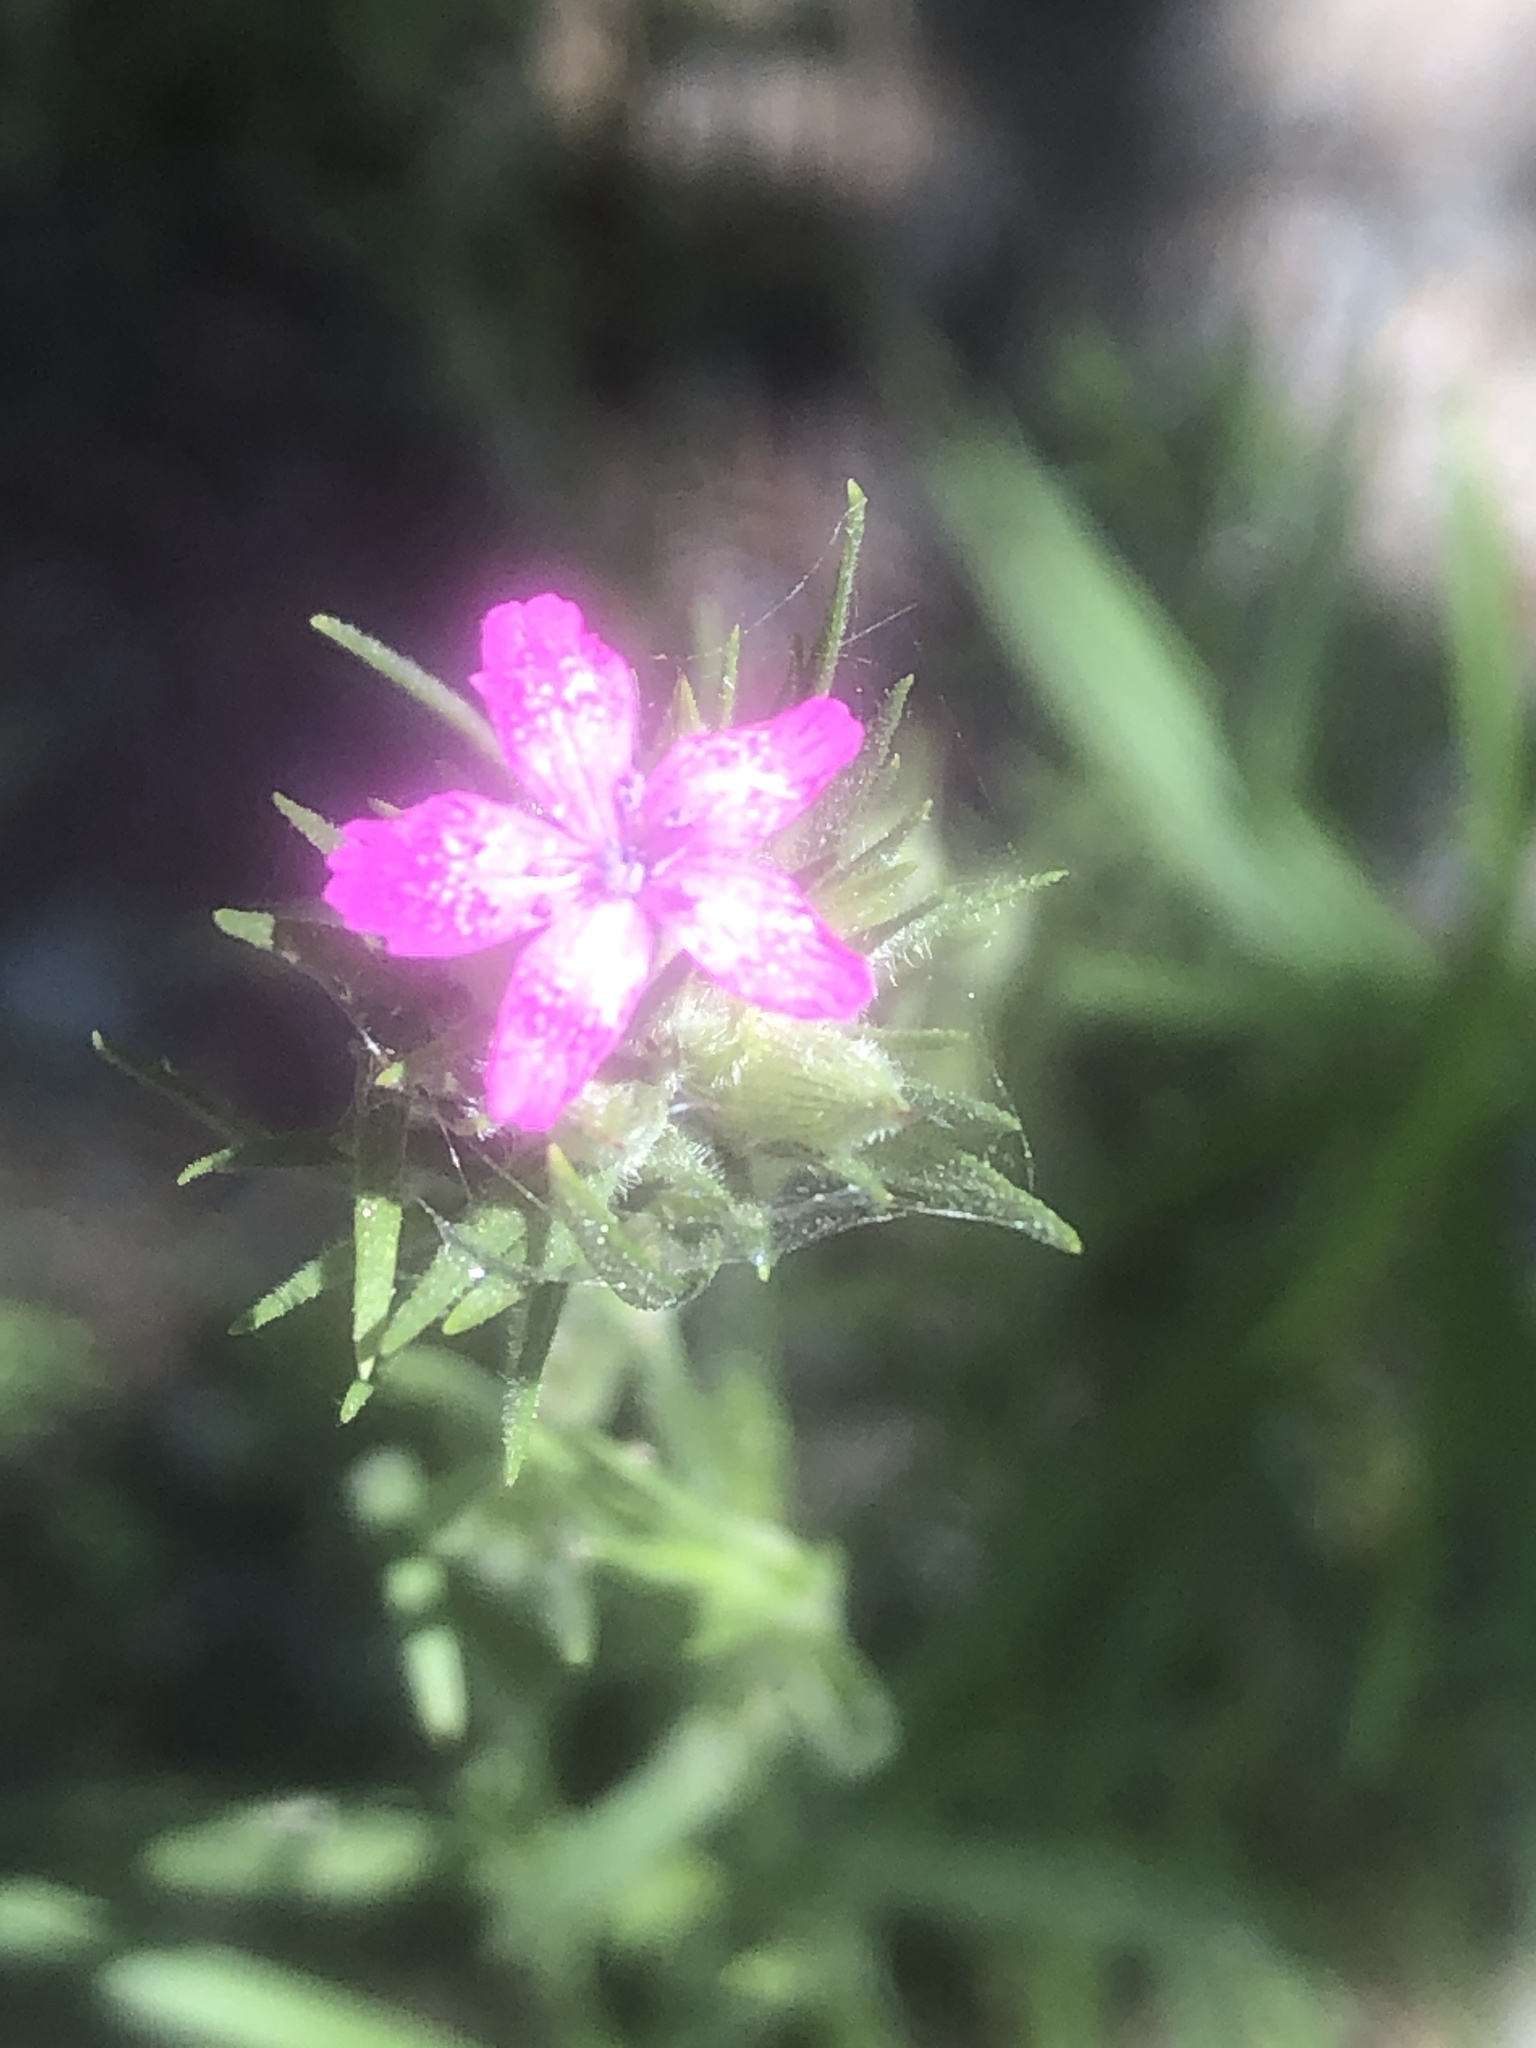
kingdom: Plantae
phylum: Tracheophyta
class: Magnoliopsida
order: Caryophyllales
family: Caryophyllaceae
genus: Dianthus
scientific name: Dianthus armeria
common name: Deptford pink
